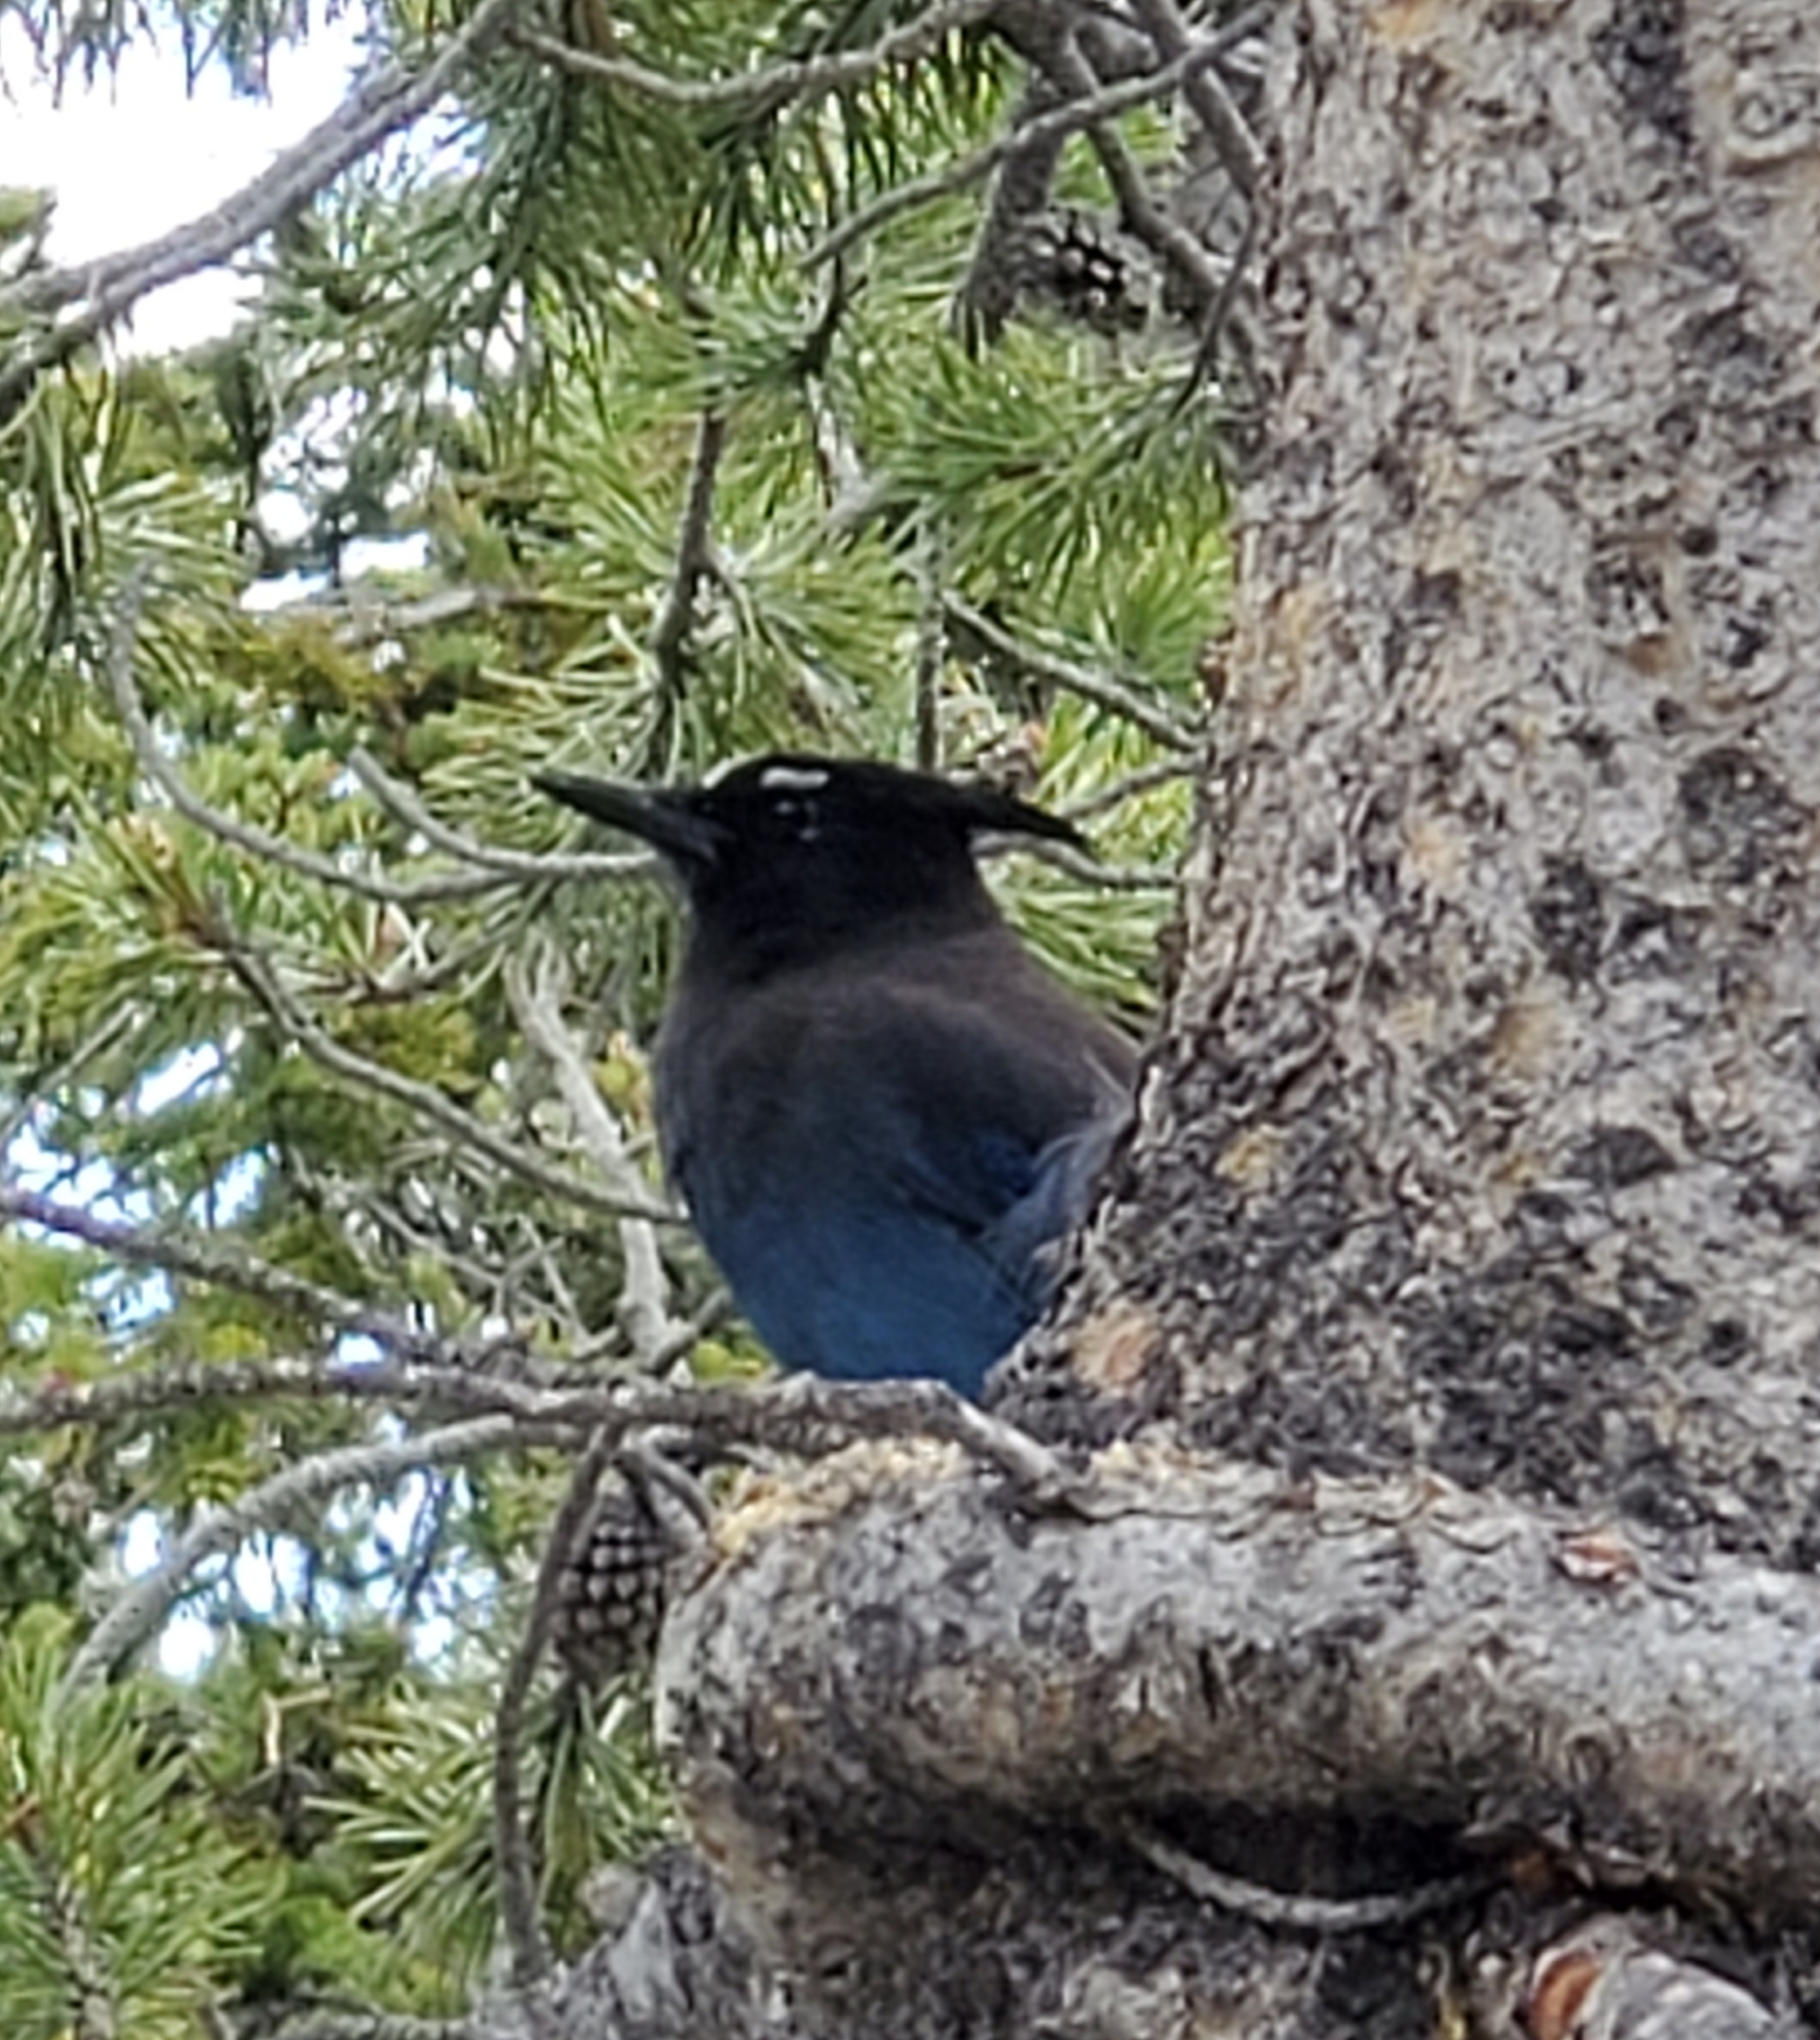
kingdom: Animalia
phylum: Chordata
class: Aves
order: Passeriformes
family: Corvidae
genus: Cyanocitta
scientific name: Cyanocitta stelleri
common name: Steller's jay
